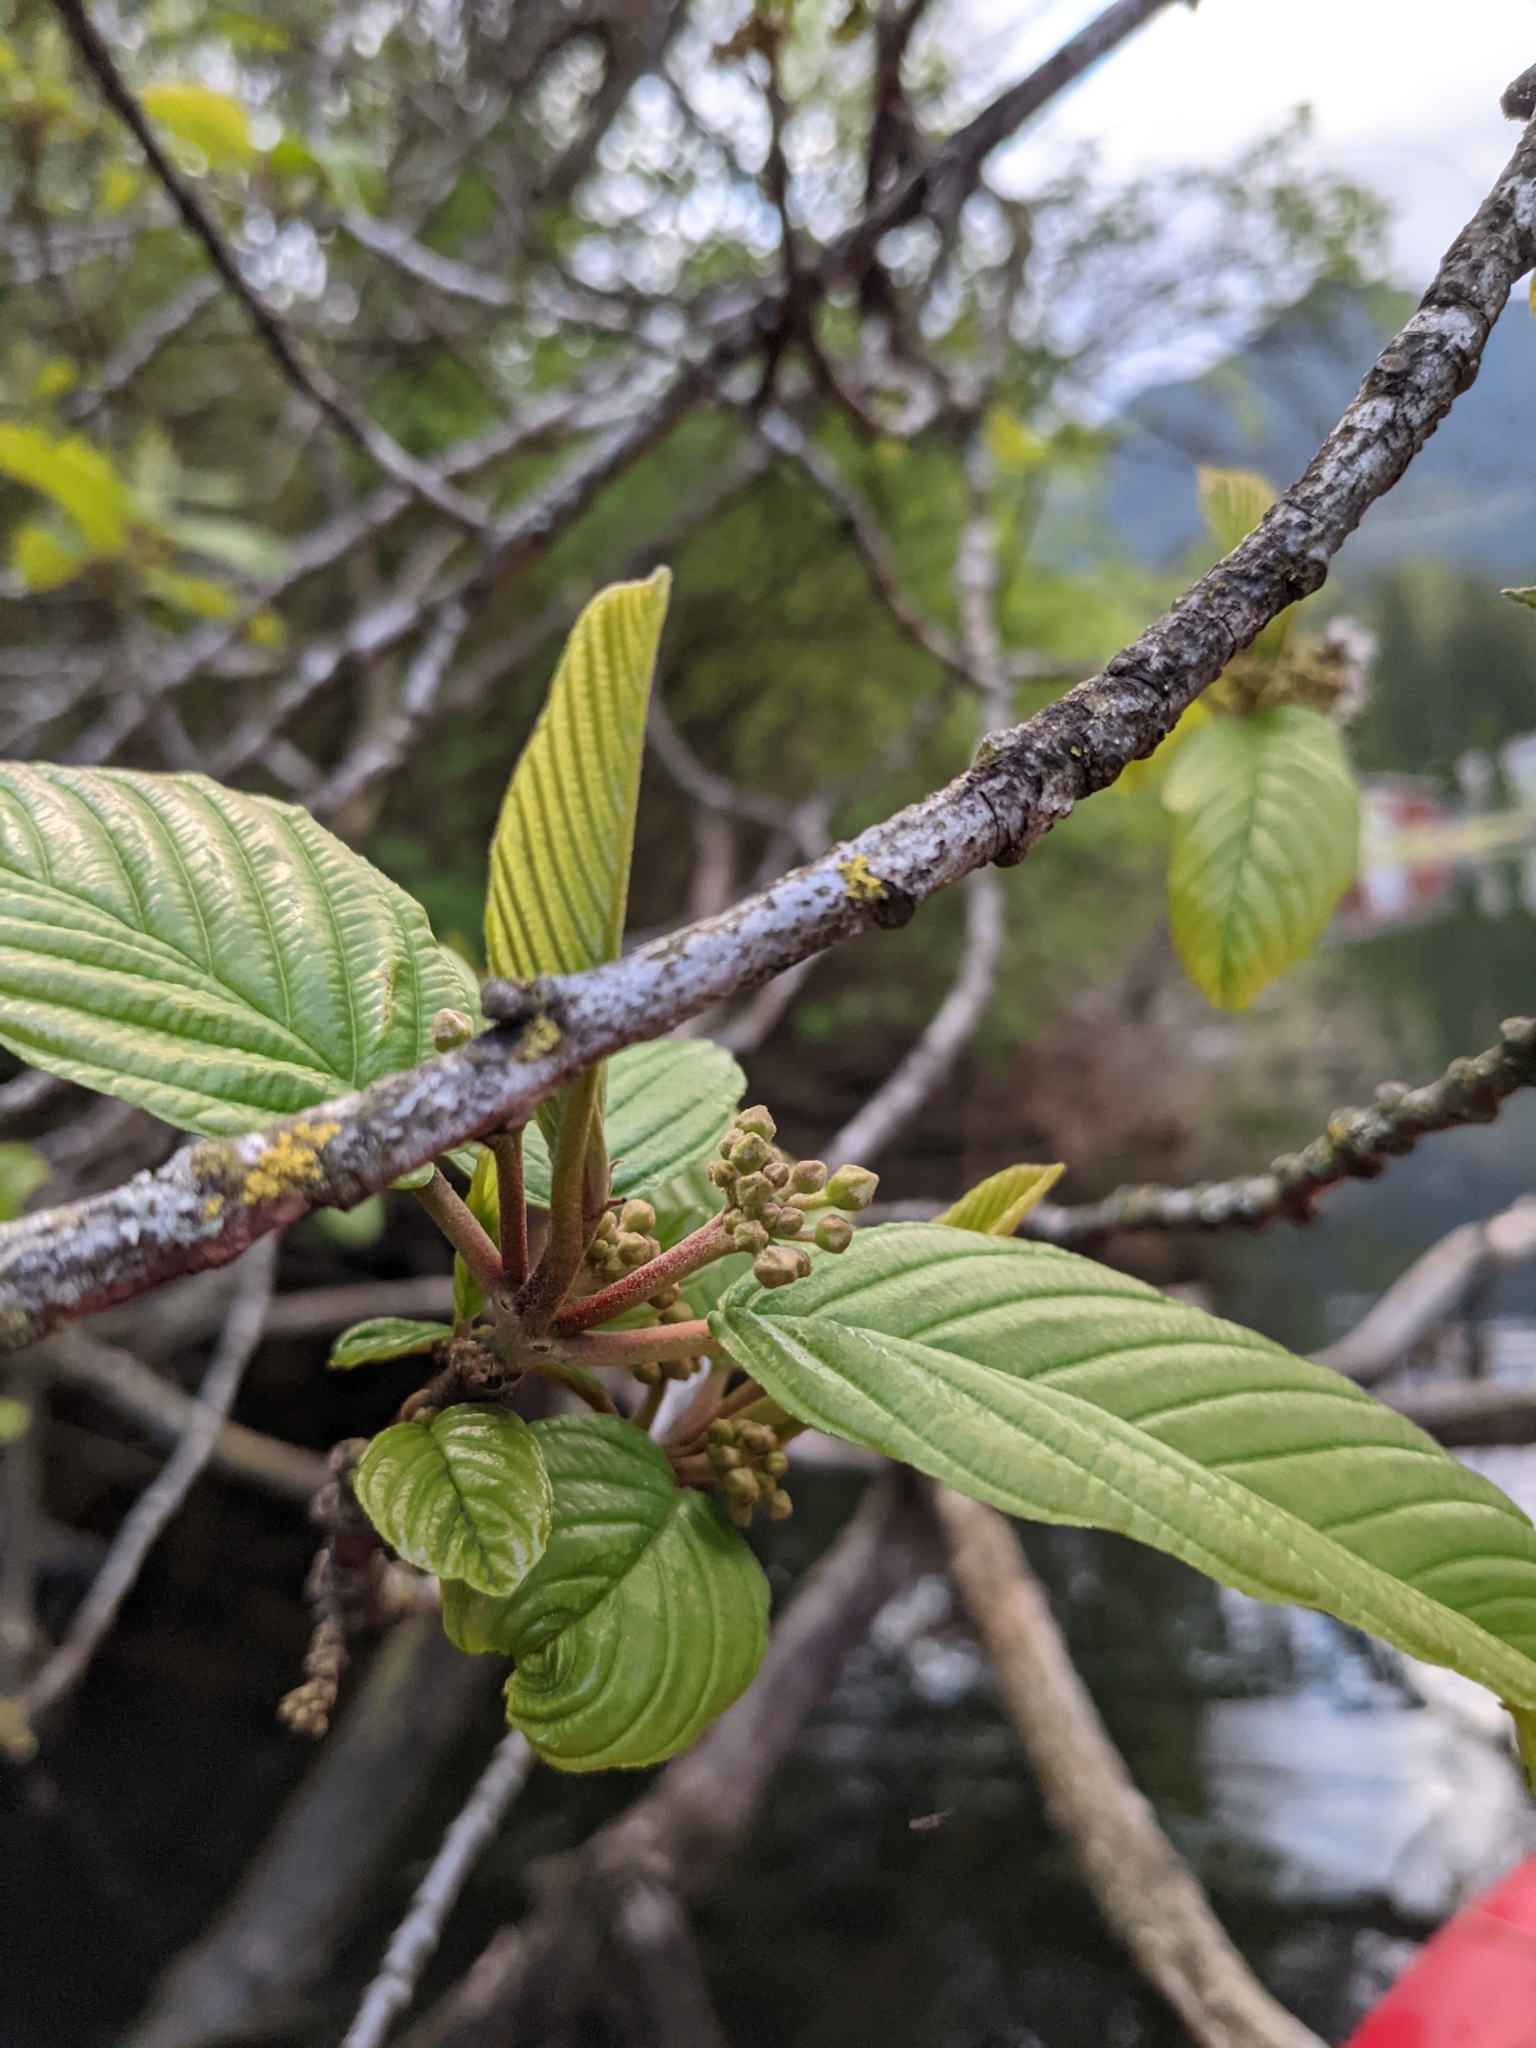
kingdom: Plantae
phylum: Tracheophyta
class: Magnoliopsida
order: Rosales
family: Rhamnaceae
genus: Frangula
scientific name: Frangula purshiana
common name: Cascara buckthorn
